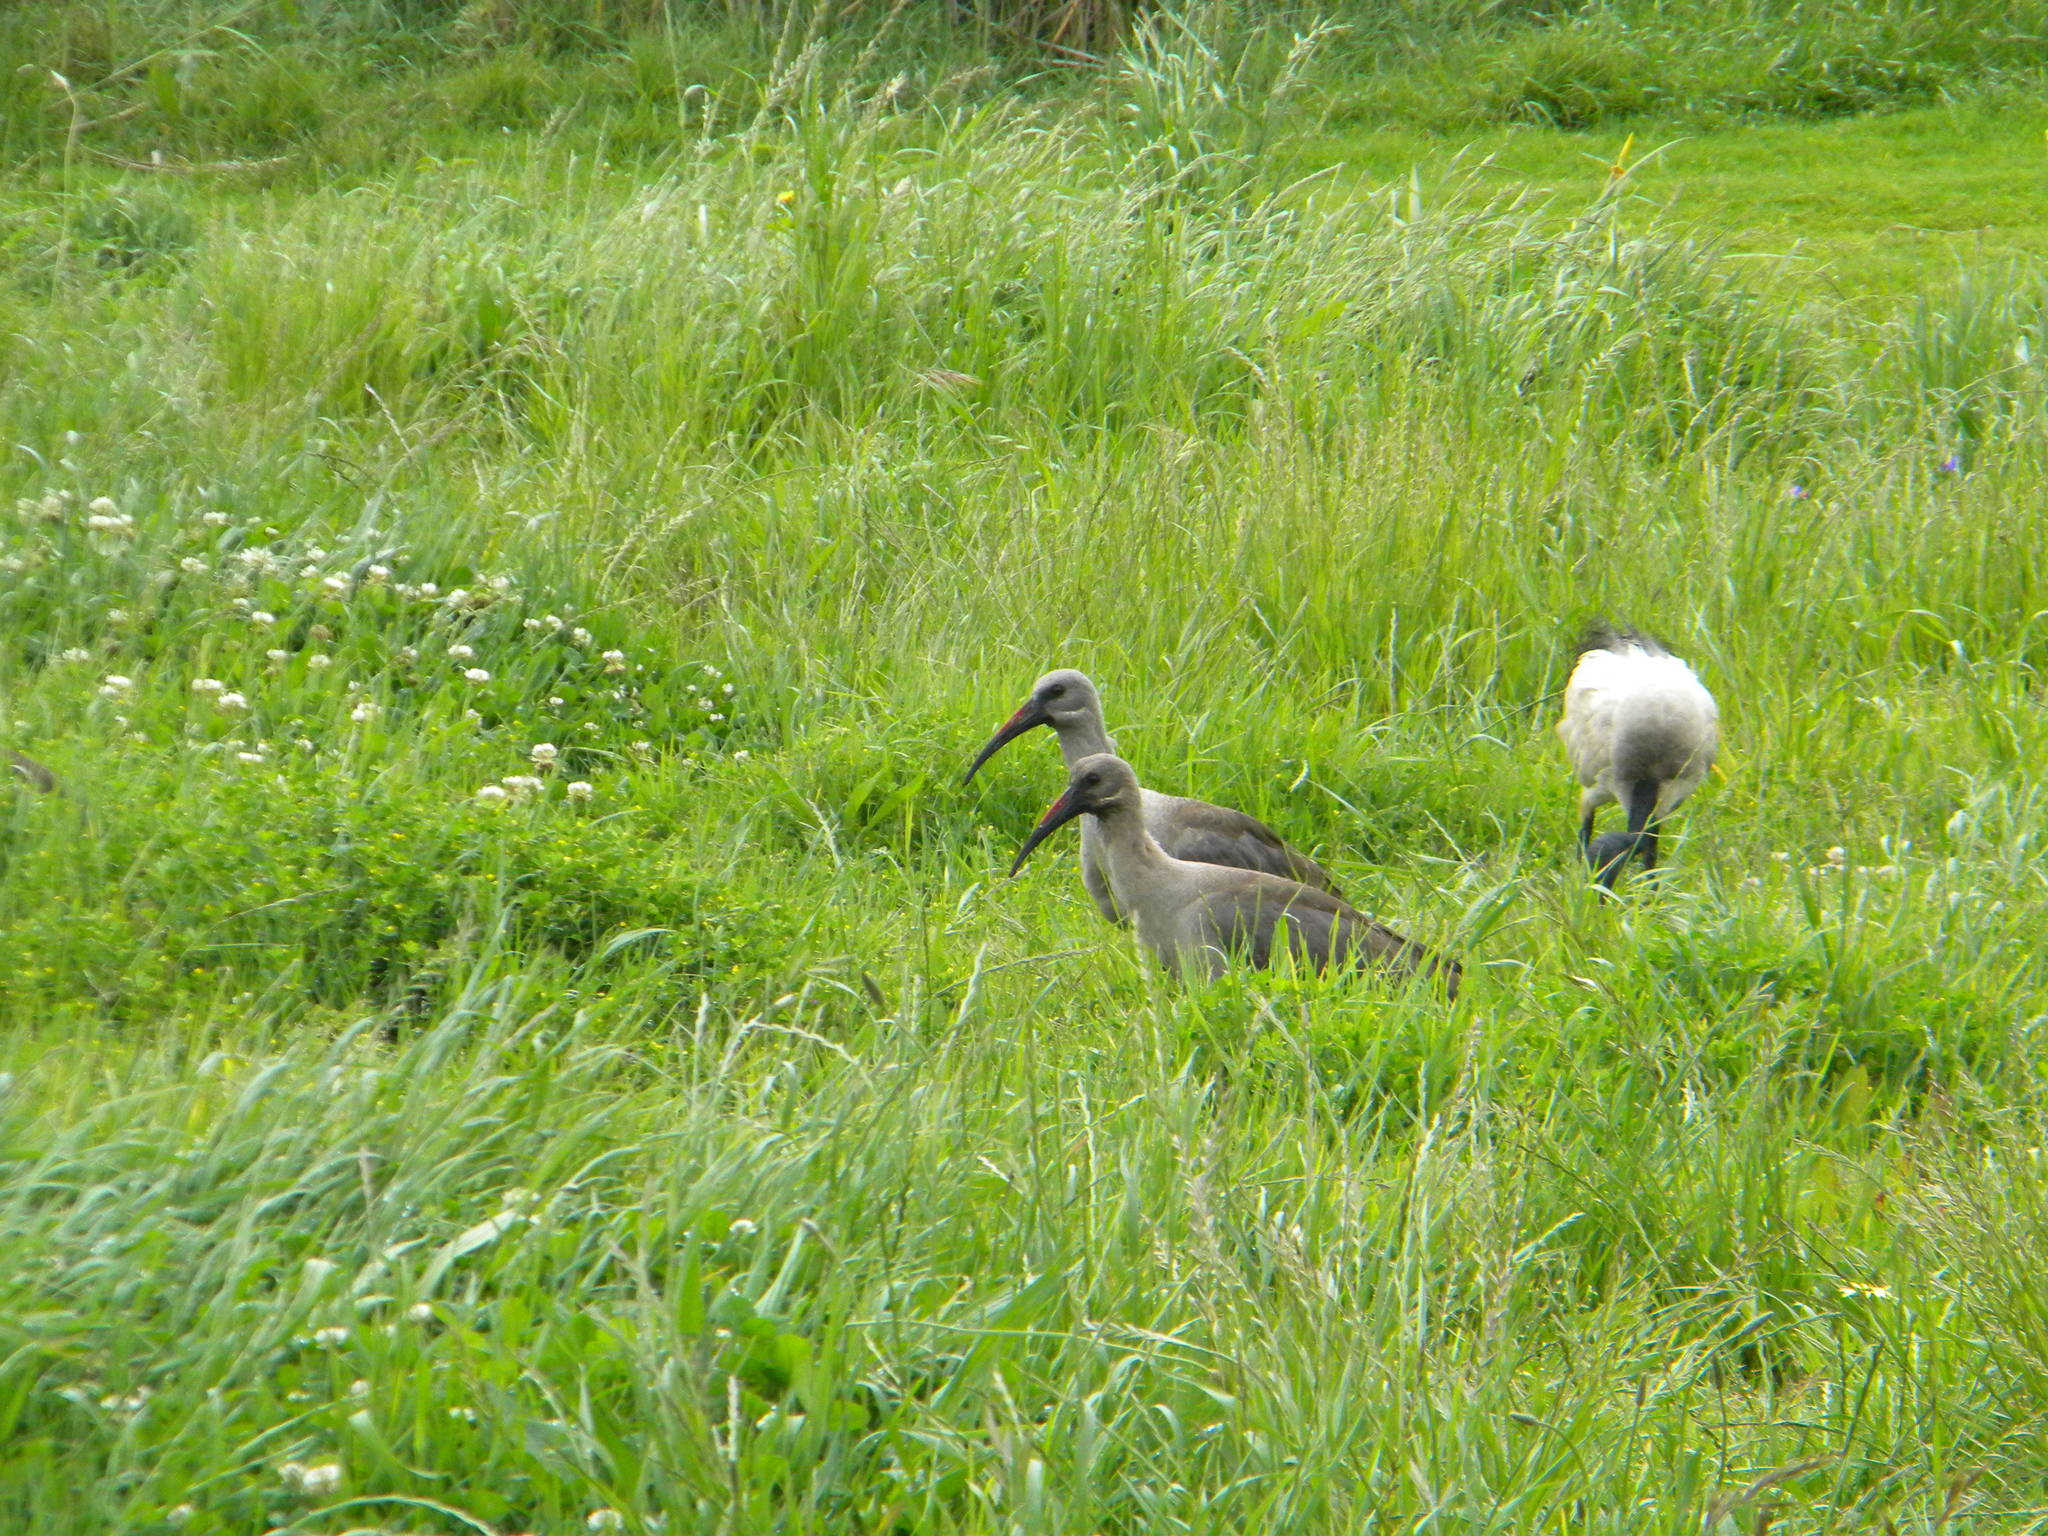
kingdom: Animalia
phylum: Chordata
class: Aves
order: Pelecaniformes
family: Threskiornithidae
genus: Bostrychia
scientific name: Bostrychia hagedash
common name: Hadada ibis
